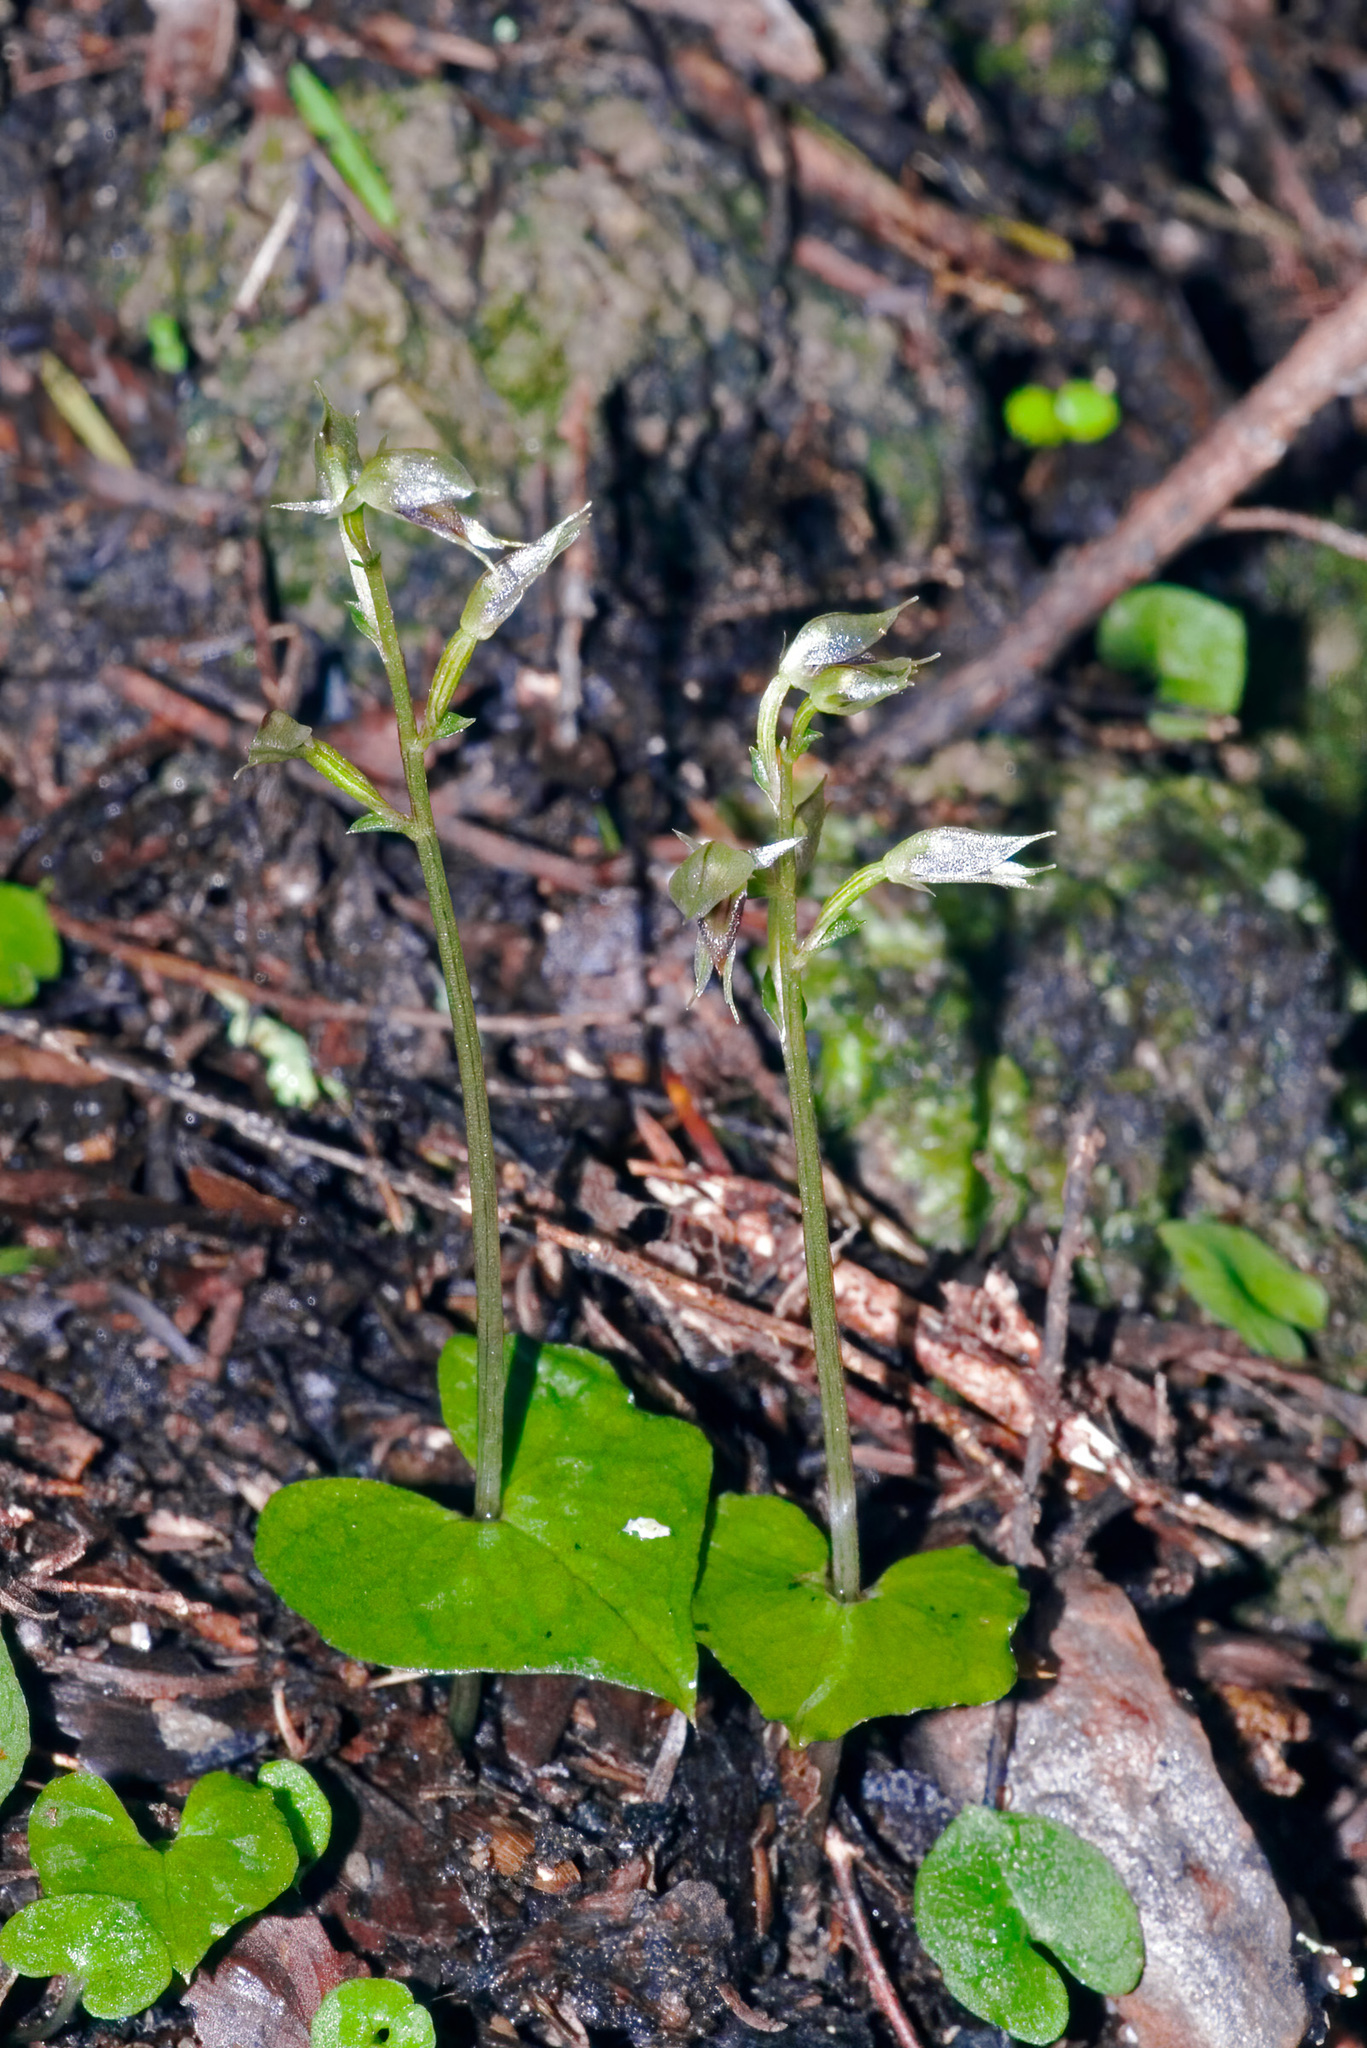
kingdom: Plantae
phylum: Tracheophyta
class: Liliopsida
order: Asparagales
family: Orchidaceae
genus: Acianthus
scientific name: Acianthus sinclairii
